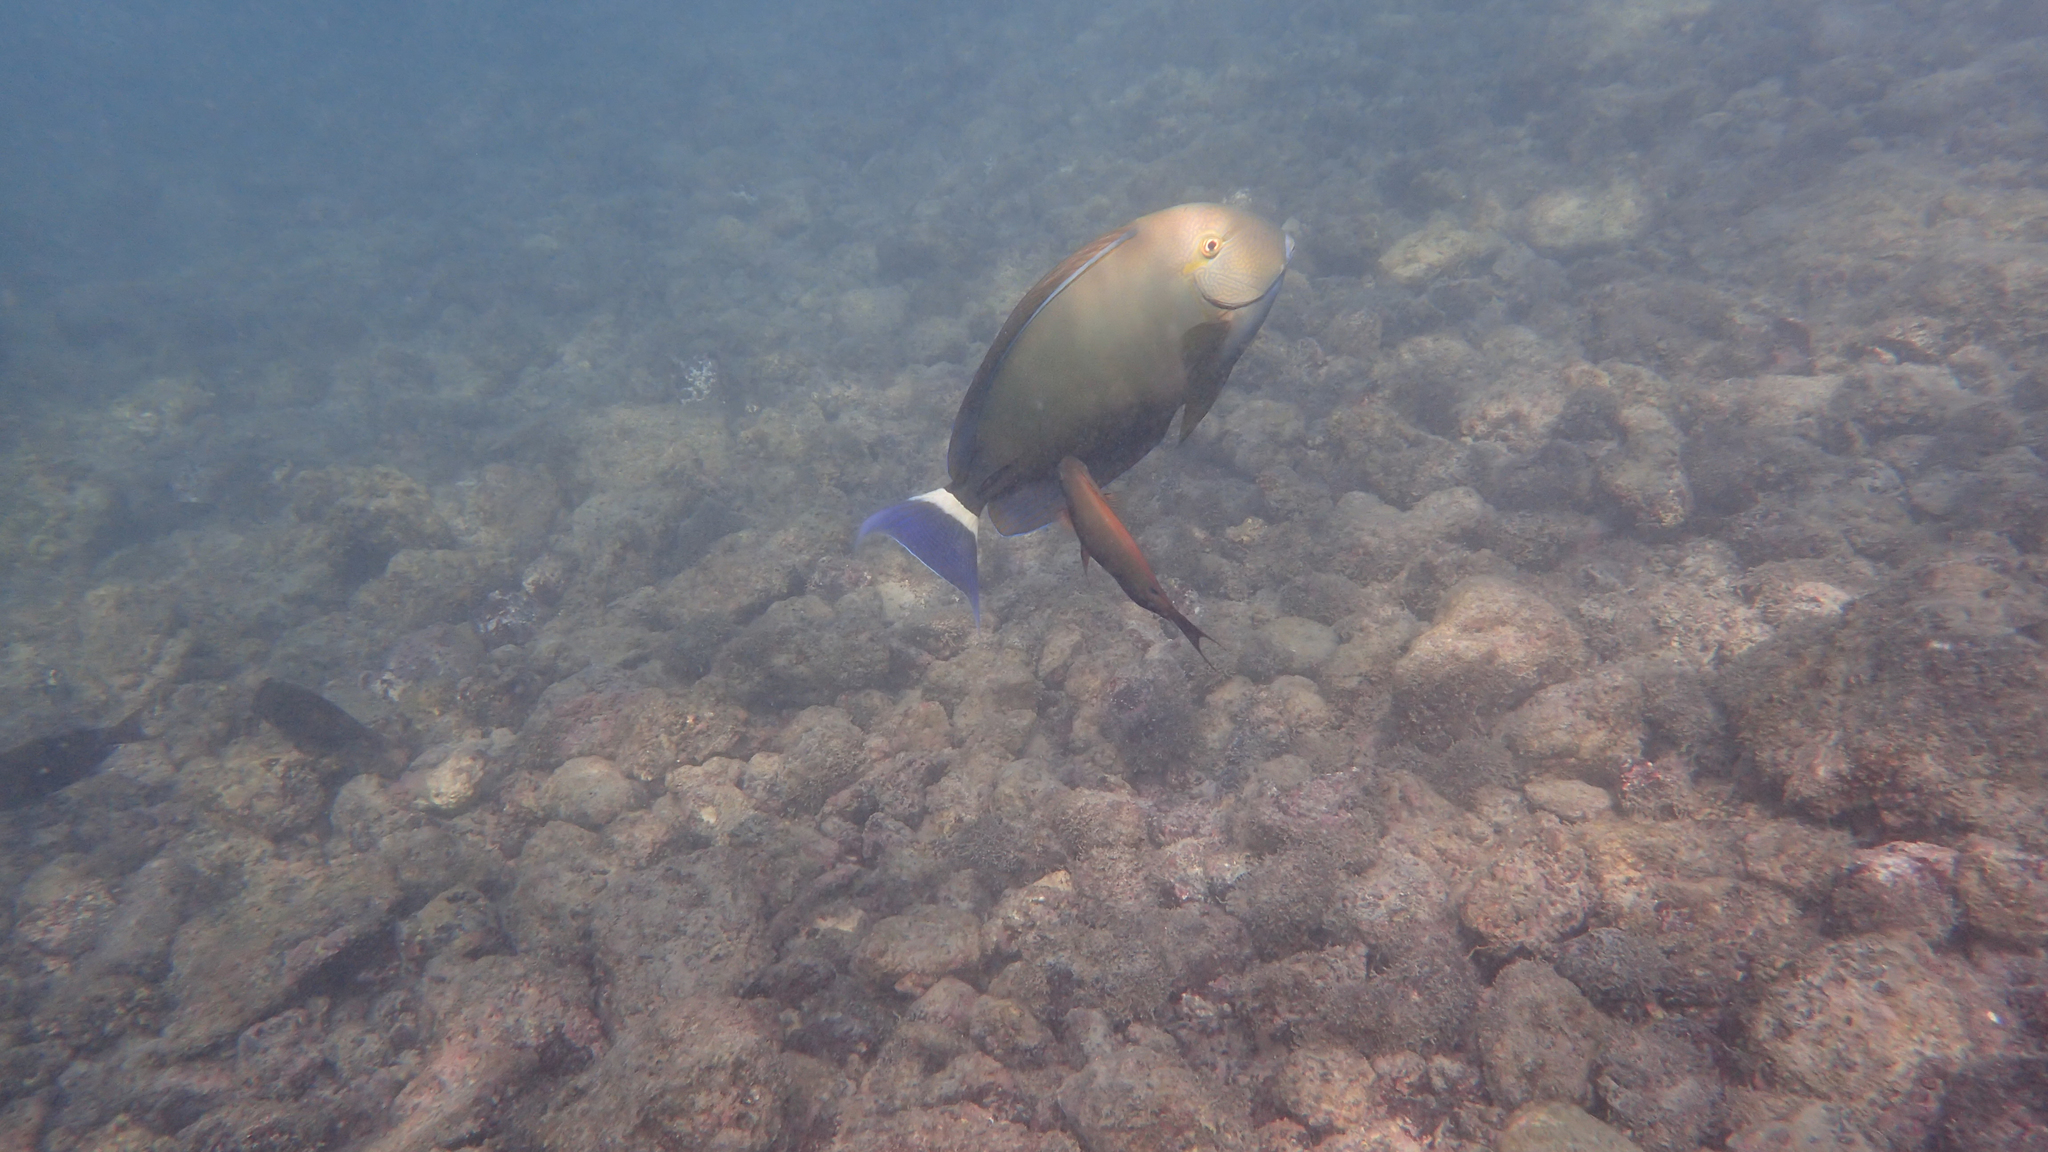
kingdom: Animalia
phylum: Chordata
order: Perciformes
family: Acanthuridae
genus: Acanthurus
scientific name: Acanthurus blochii
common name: Blue-banded pualu
